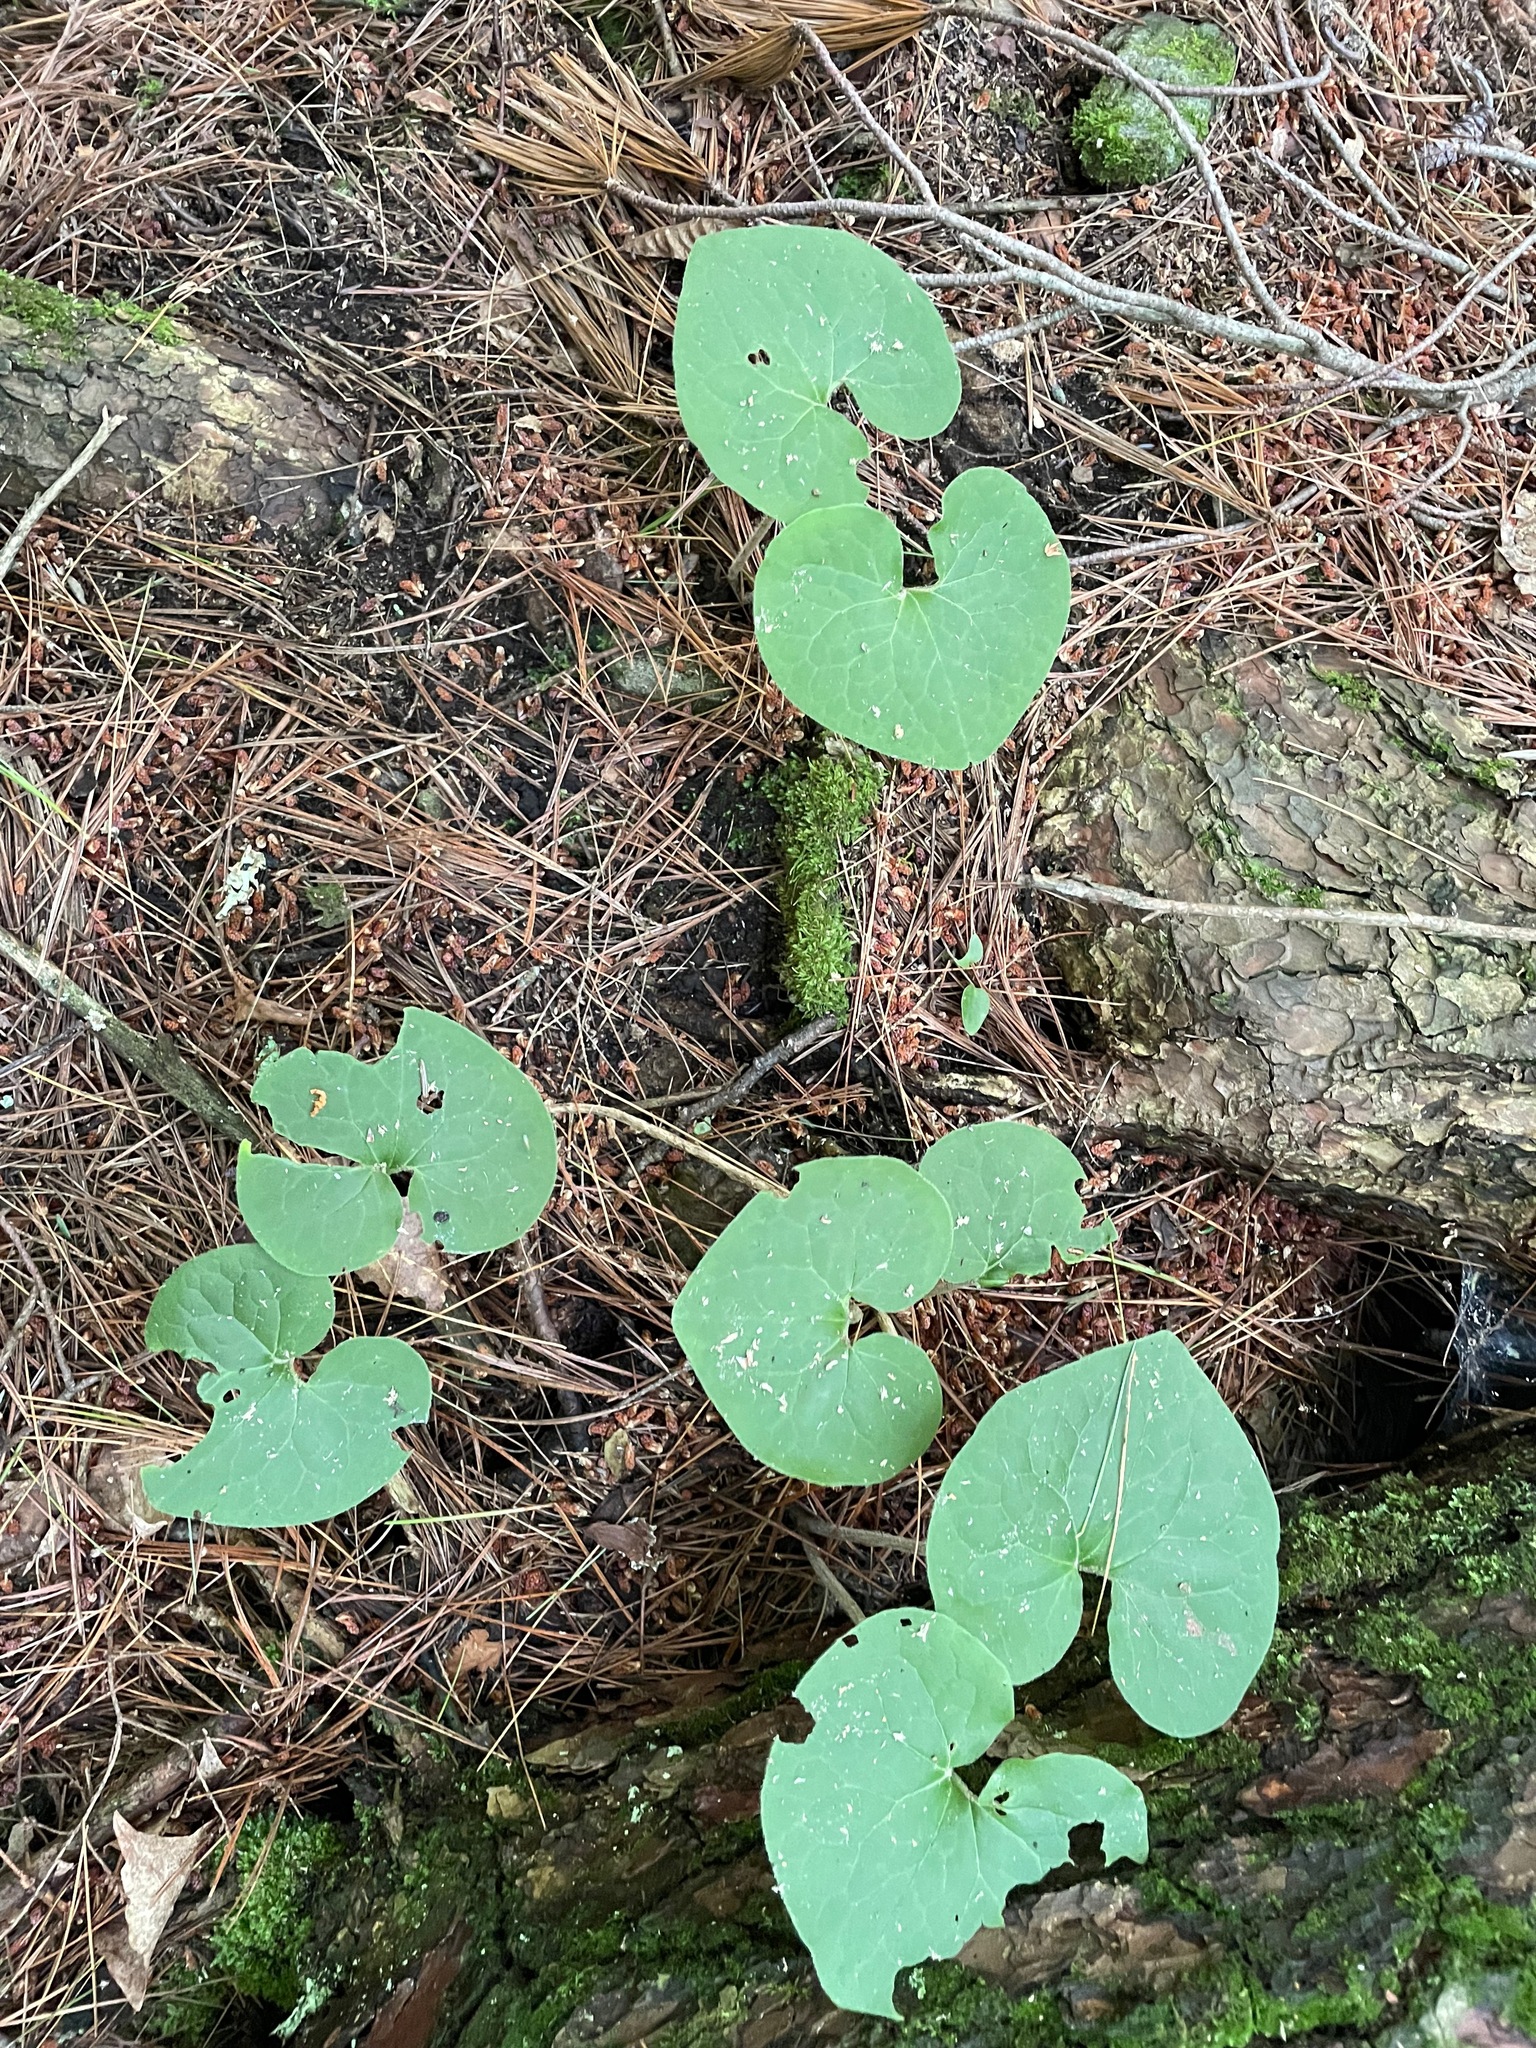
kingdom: Plantae
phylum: Tracheophyta
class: Magnoliopsida
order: Piperales
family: Aristolochiaceae
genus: Asarum
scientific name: Asarum canadense
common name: Wild ginger
